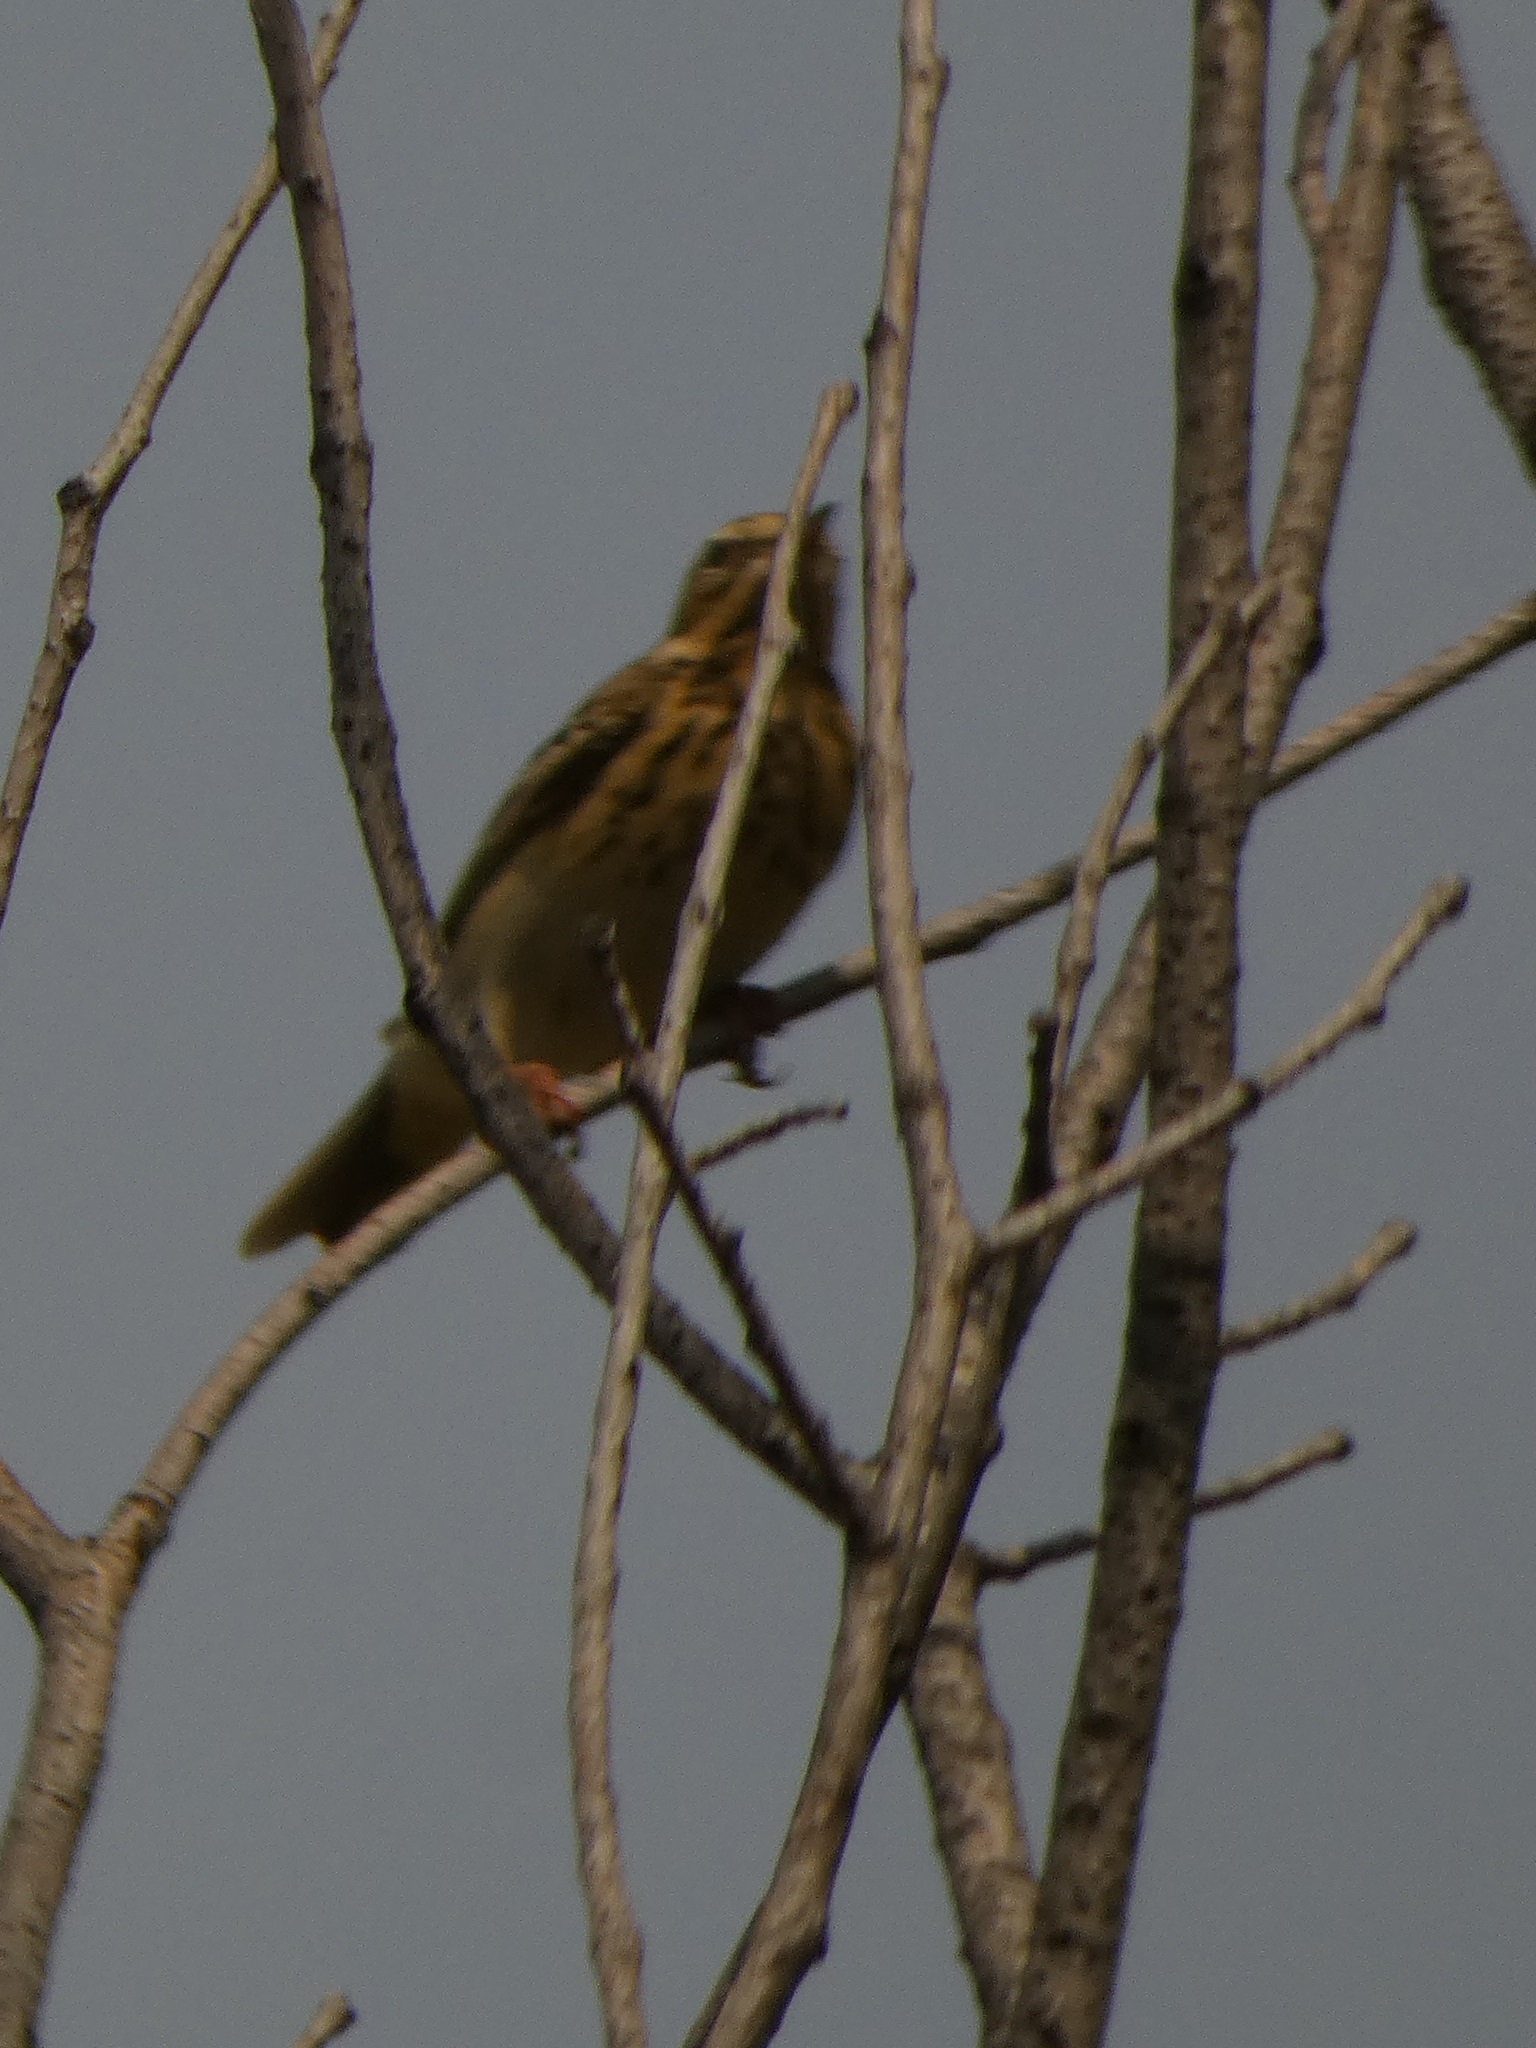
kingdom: Animalia
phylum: Chordata
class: Aves
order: Passeriformes
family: Motacillidae
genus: Anthus
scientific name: Anthus trivialis
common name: Tree pipit
